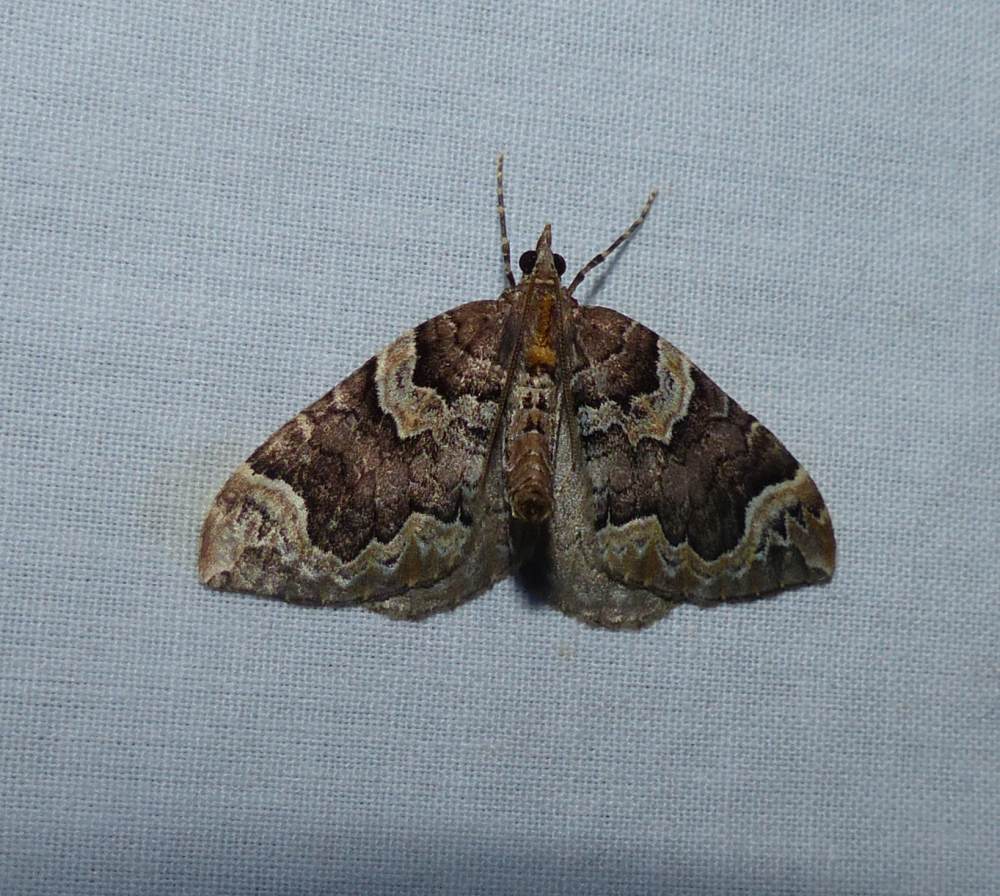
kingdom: Animalia
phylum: Arthropoda
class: Insecta
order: Lepidoptera
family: Geometridae
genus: Eulithis
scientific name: Eulithis serrataria
